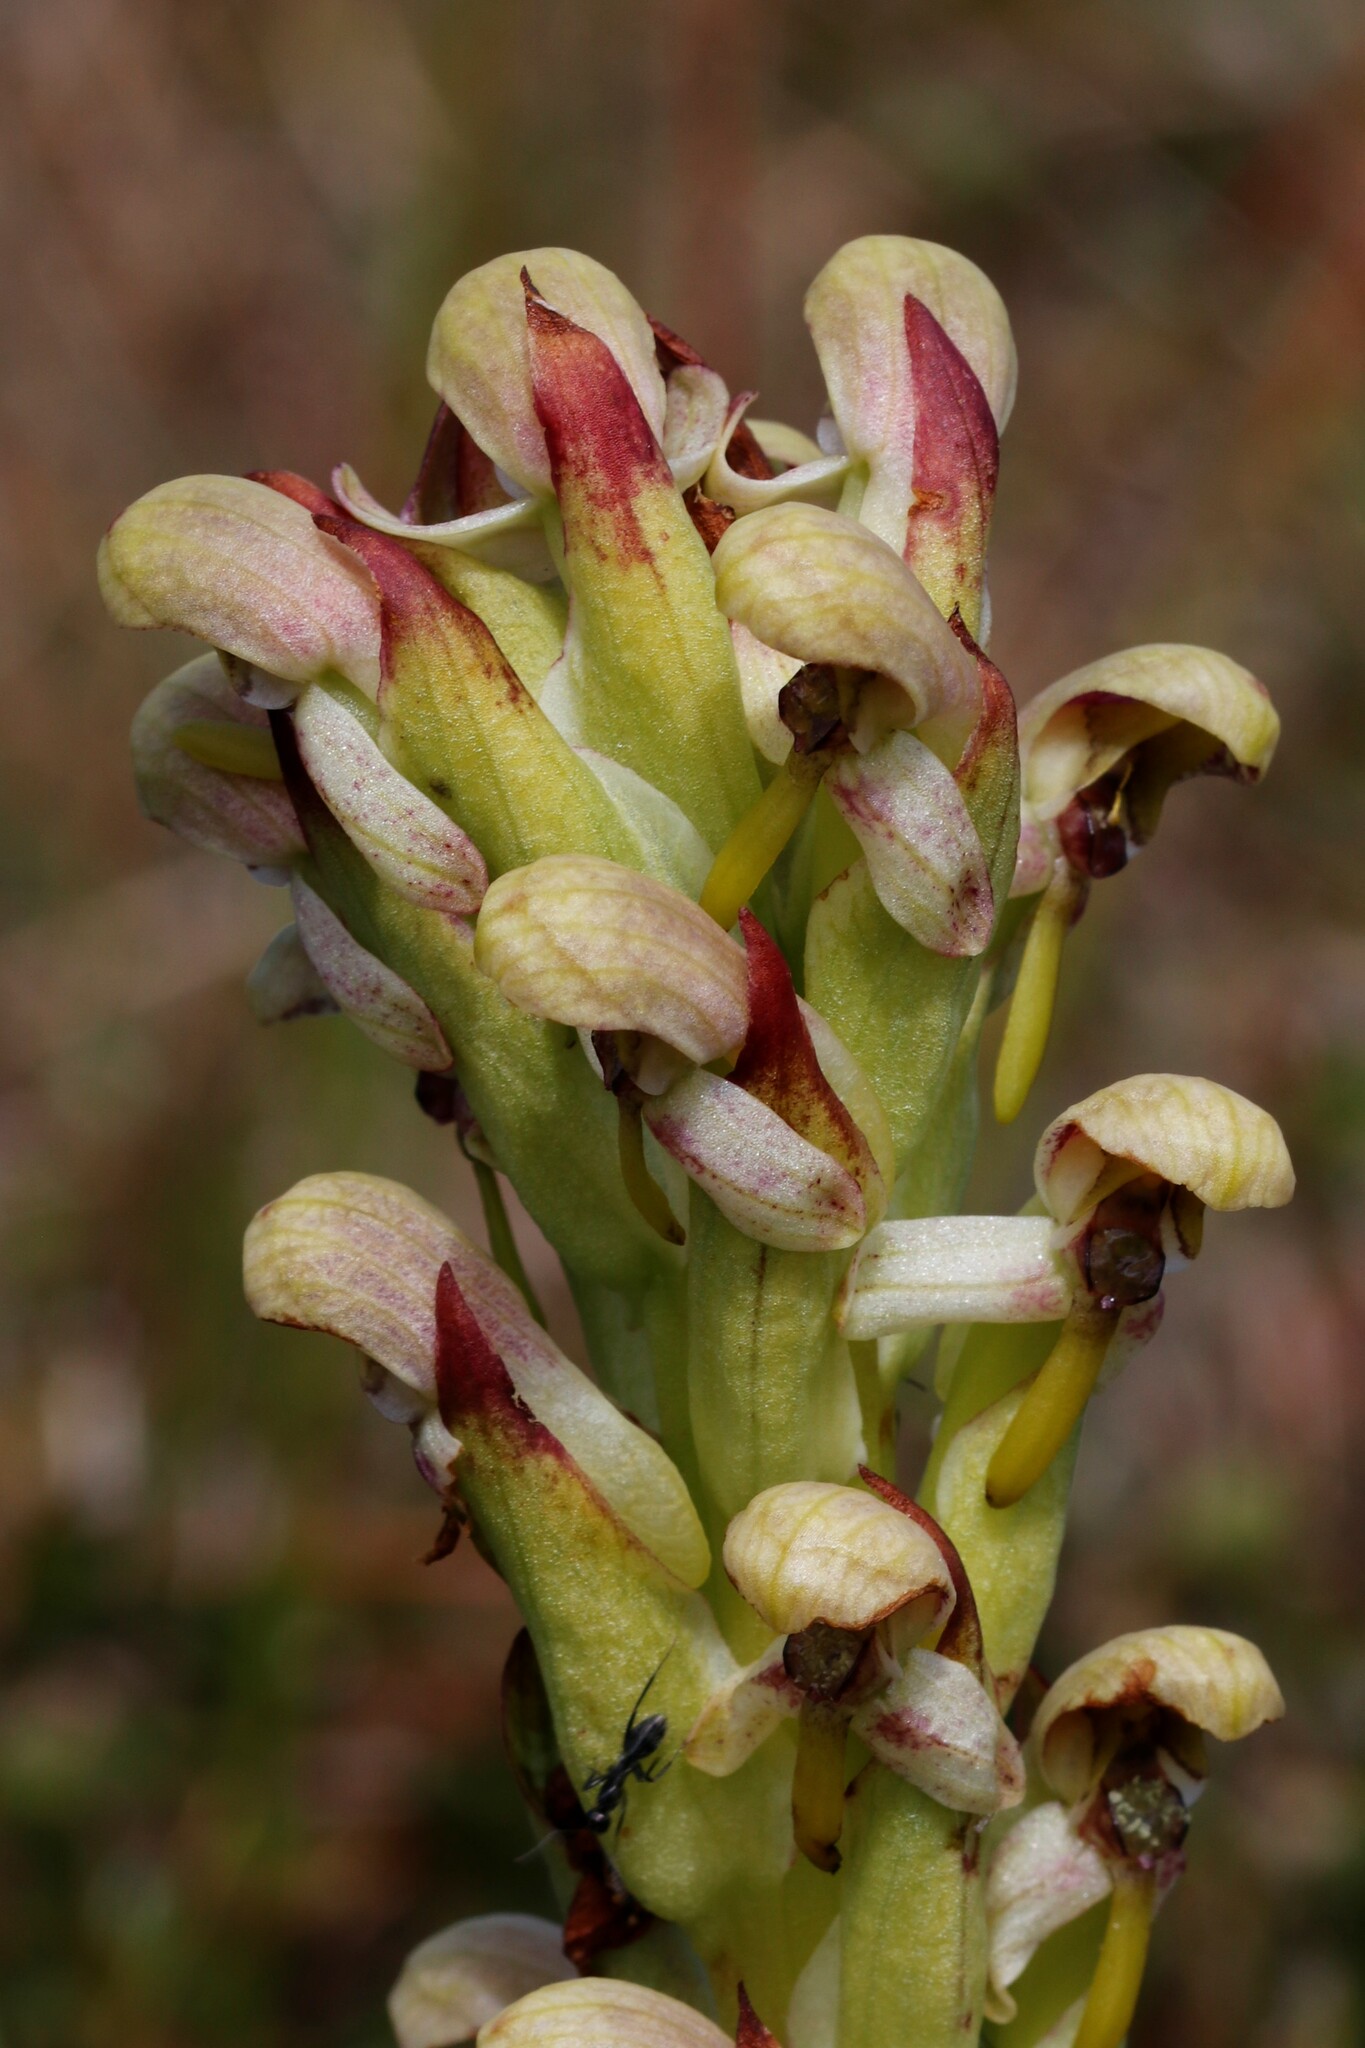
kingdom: Plantae
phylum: Tracheophyta
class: Liliopsida
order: Asparagales
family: Orchidaceae
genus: Disa
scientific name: Disa cernua
